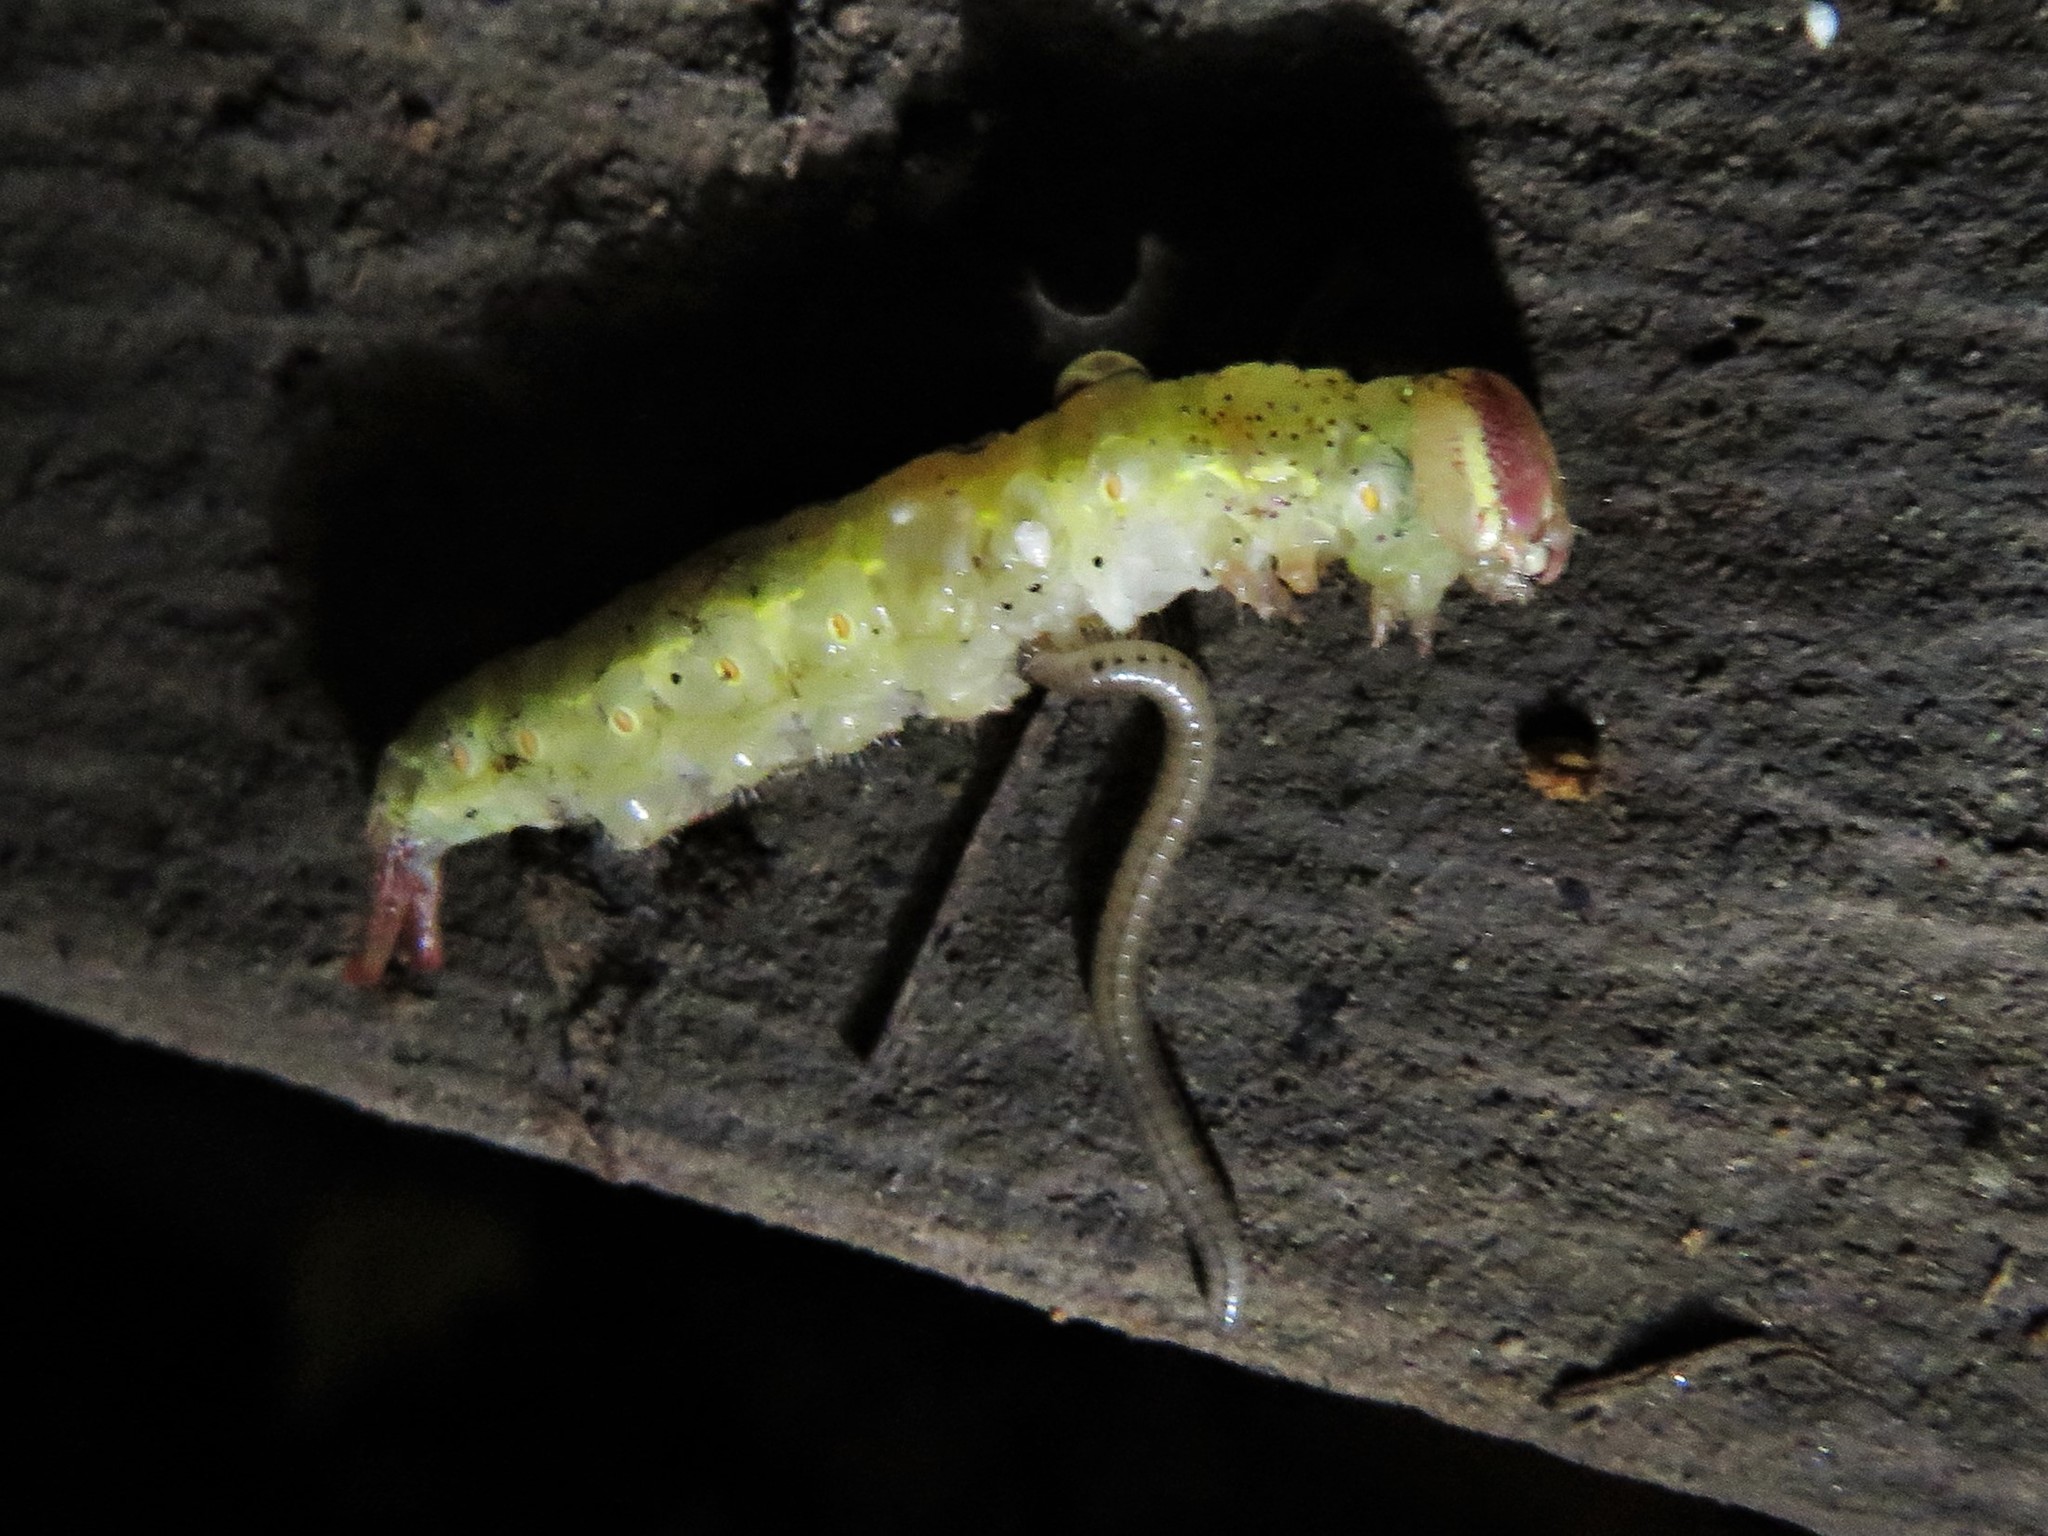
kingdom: Animalia
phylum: Arthropoda
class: Insecta
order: Lepidoptera
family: Notodontidae
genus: Misogada
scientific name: Misogada unicolor
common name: Drab prominent
